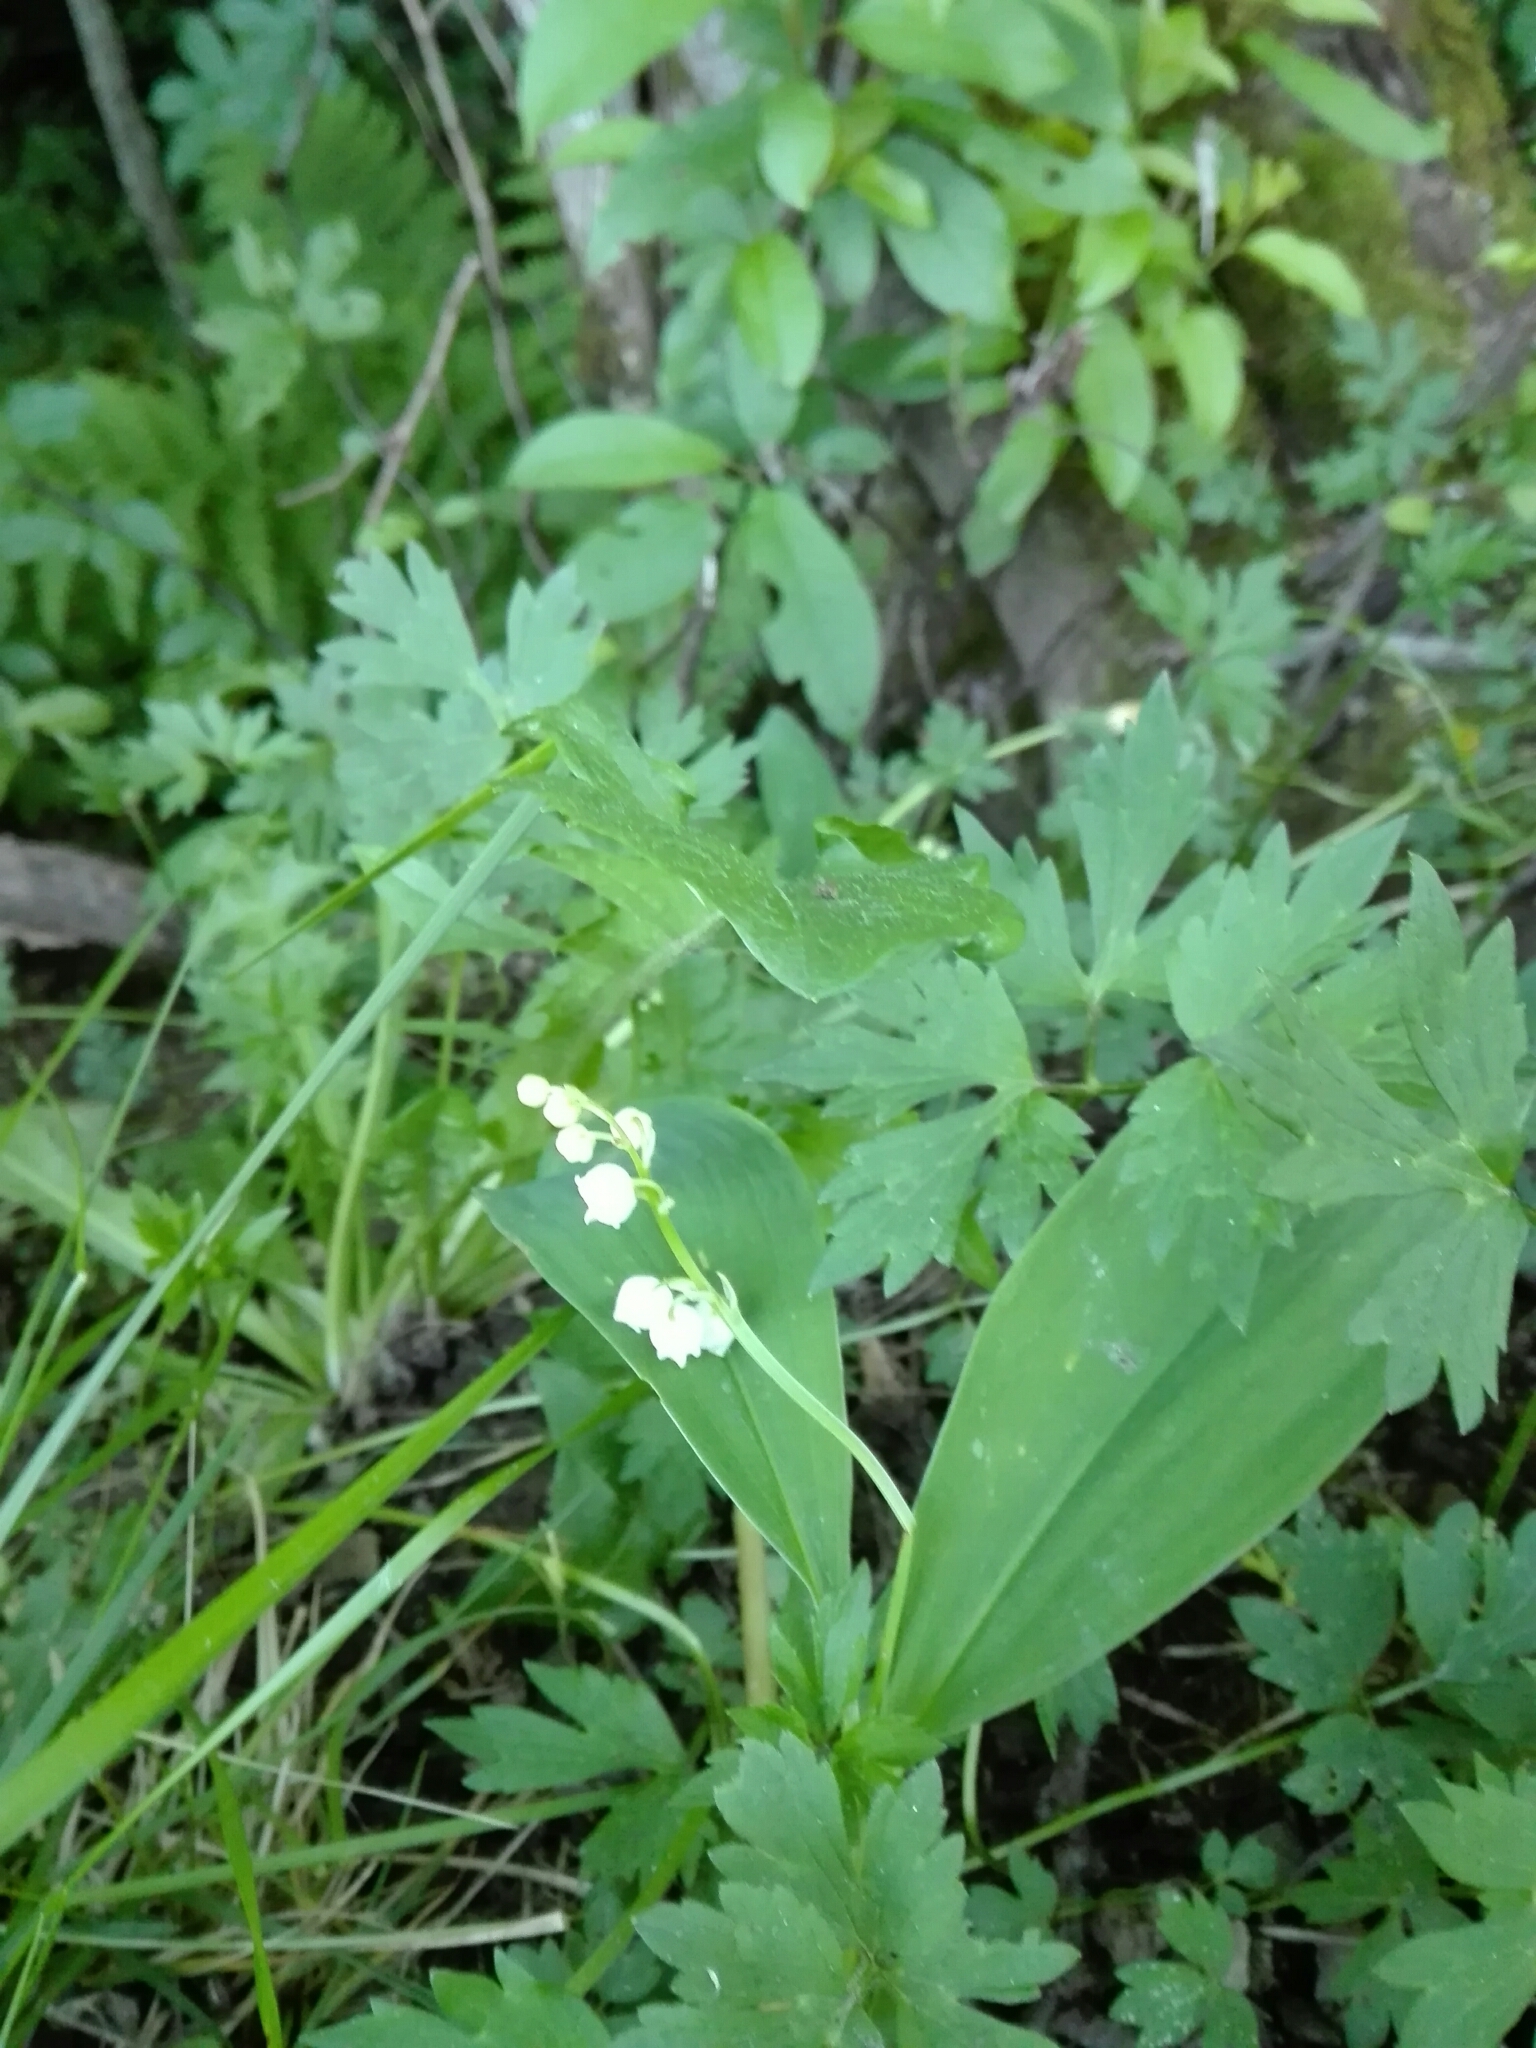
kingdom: Plantae
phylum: Tracheophyta
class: Liliopsida
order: Asparagales
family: Asparagaceae
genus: Convallaria
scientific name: Convallaria majalis
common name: Lily-of-the-valley
